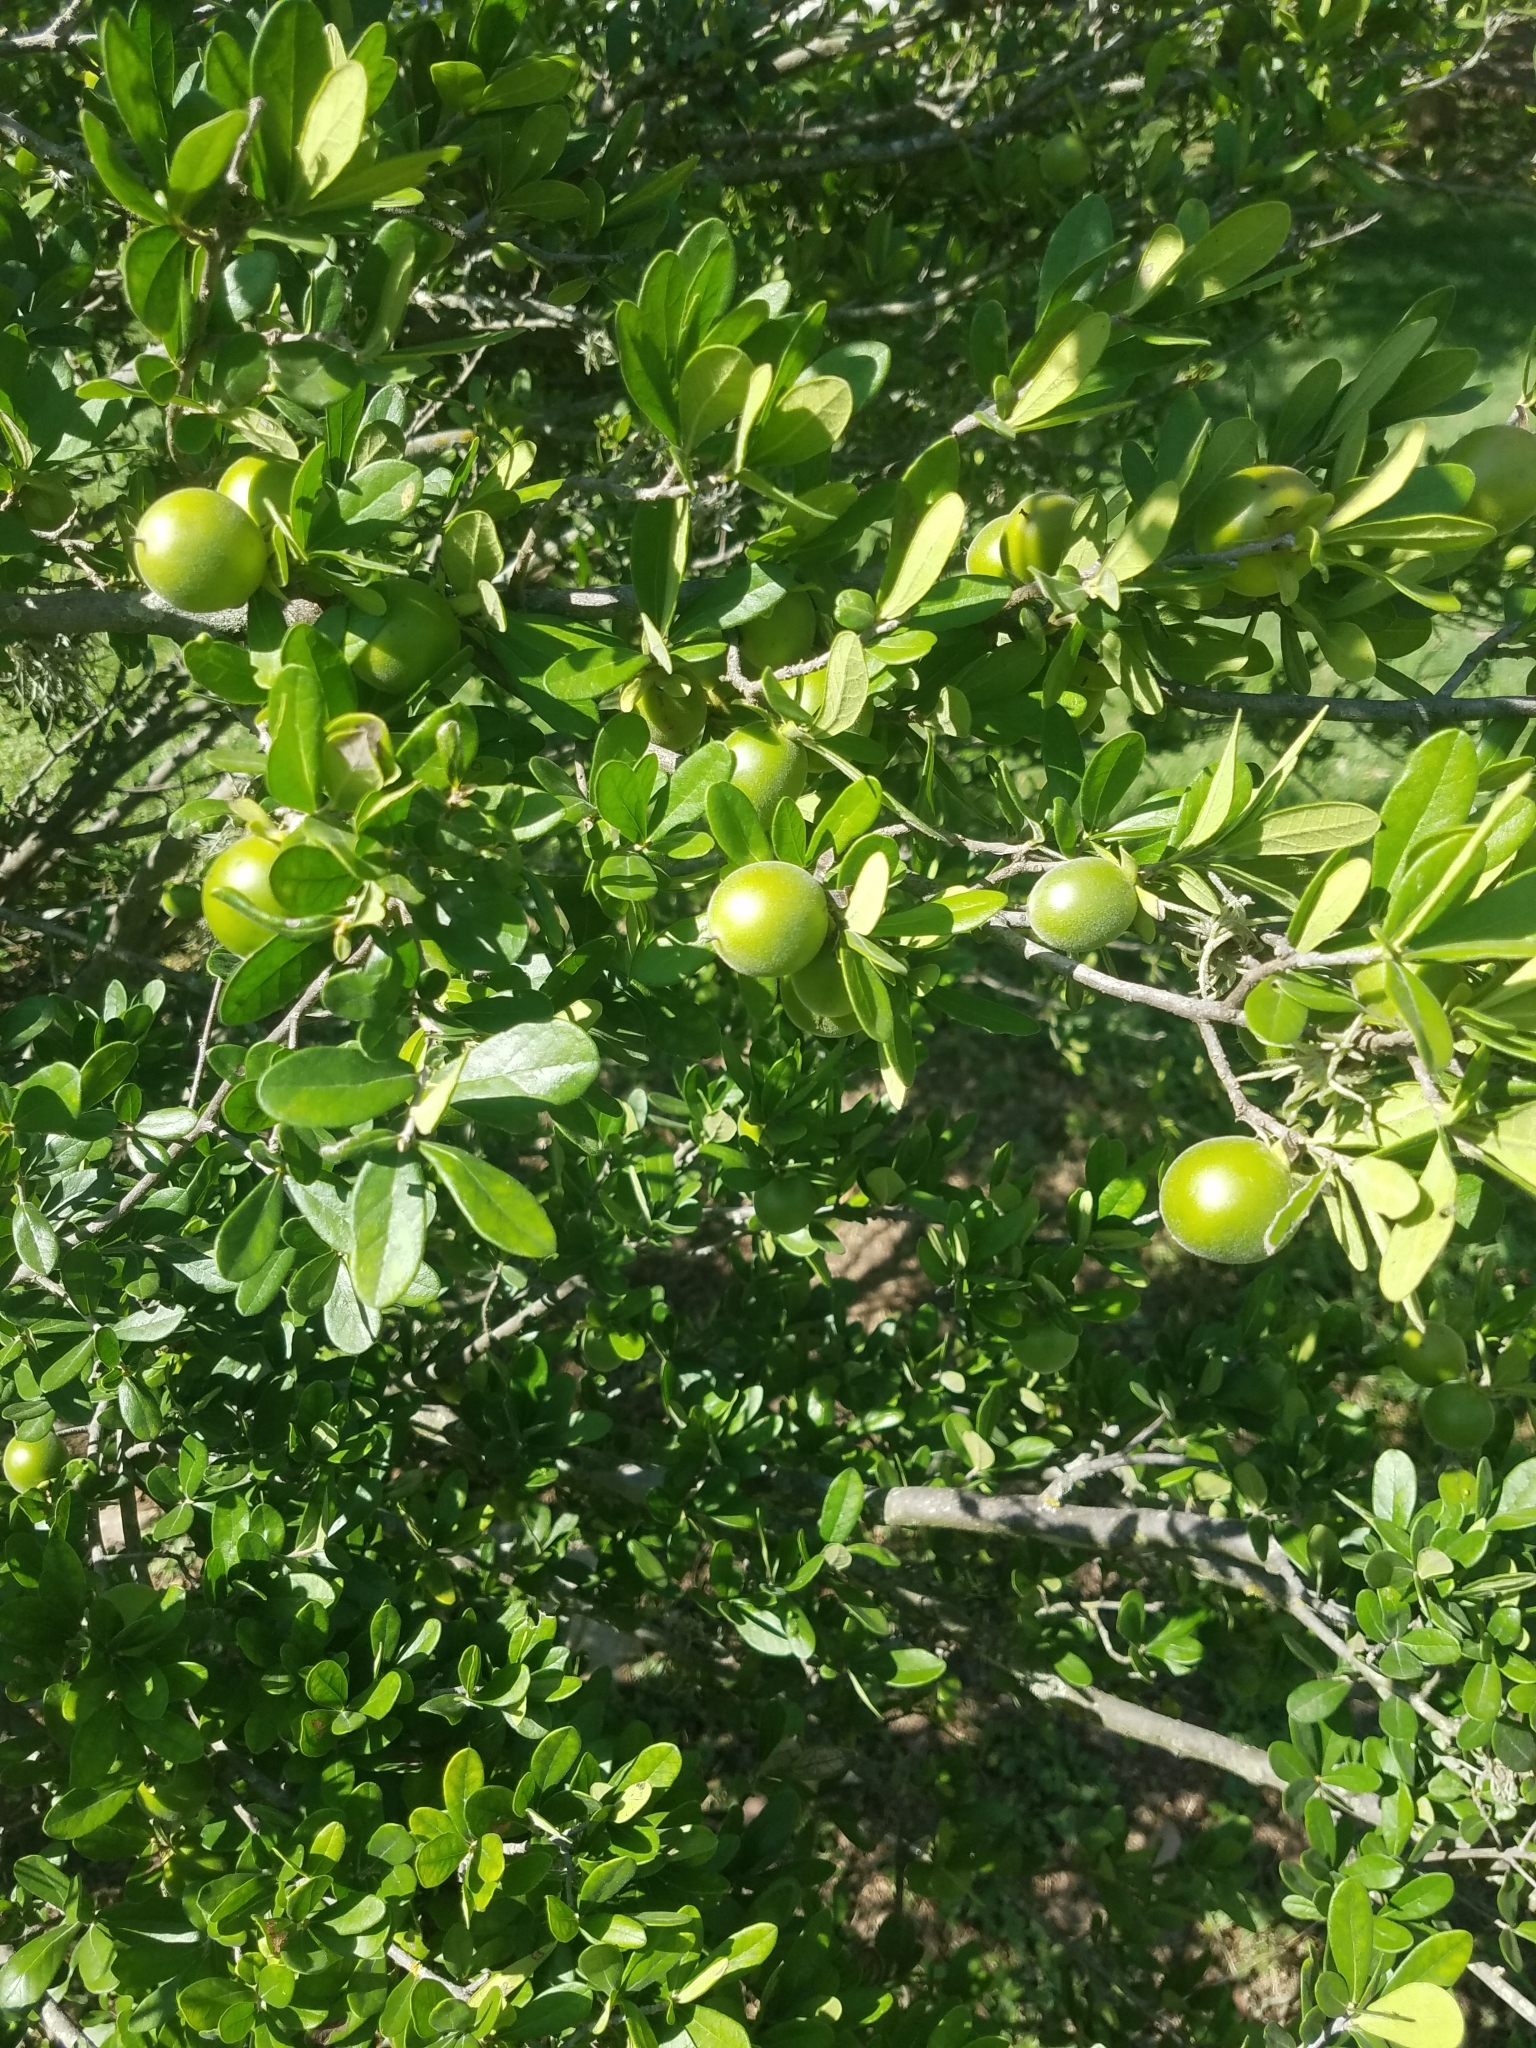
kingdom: Plantae
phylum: Tracheophyta
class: Magnoliopsida
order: Ericales
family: Ebenaceae
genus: Diospyros
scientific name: Diospyros texana
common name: Texas persimmon
